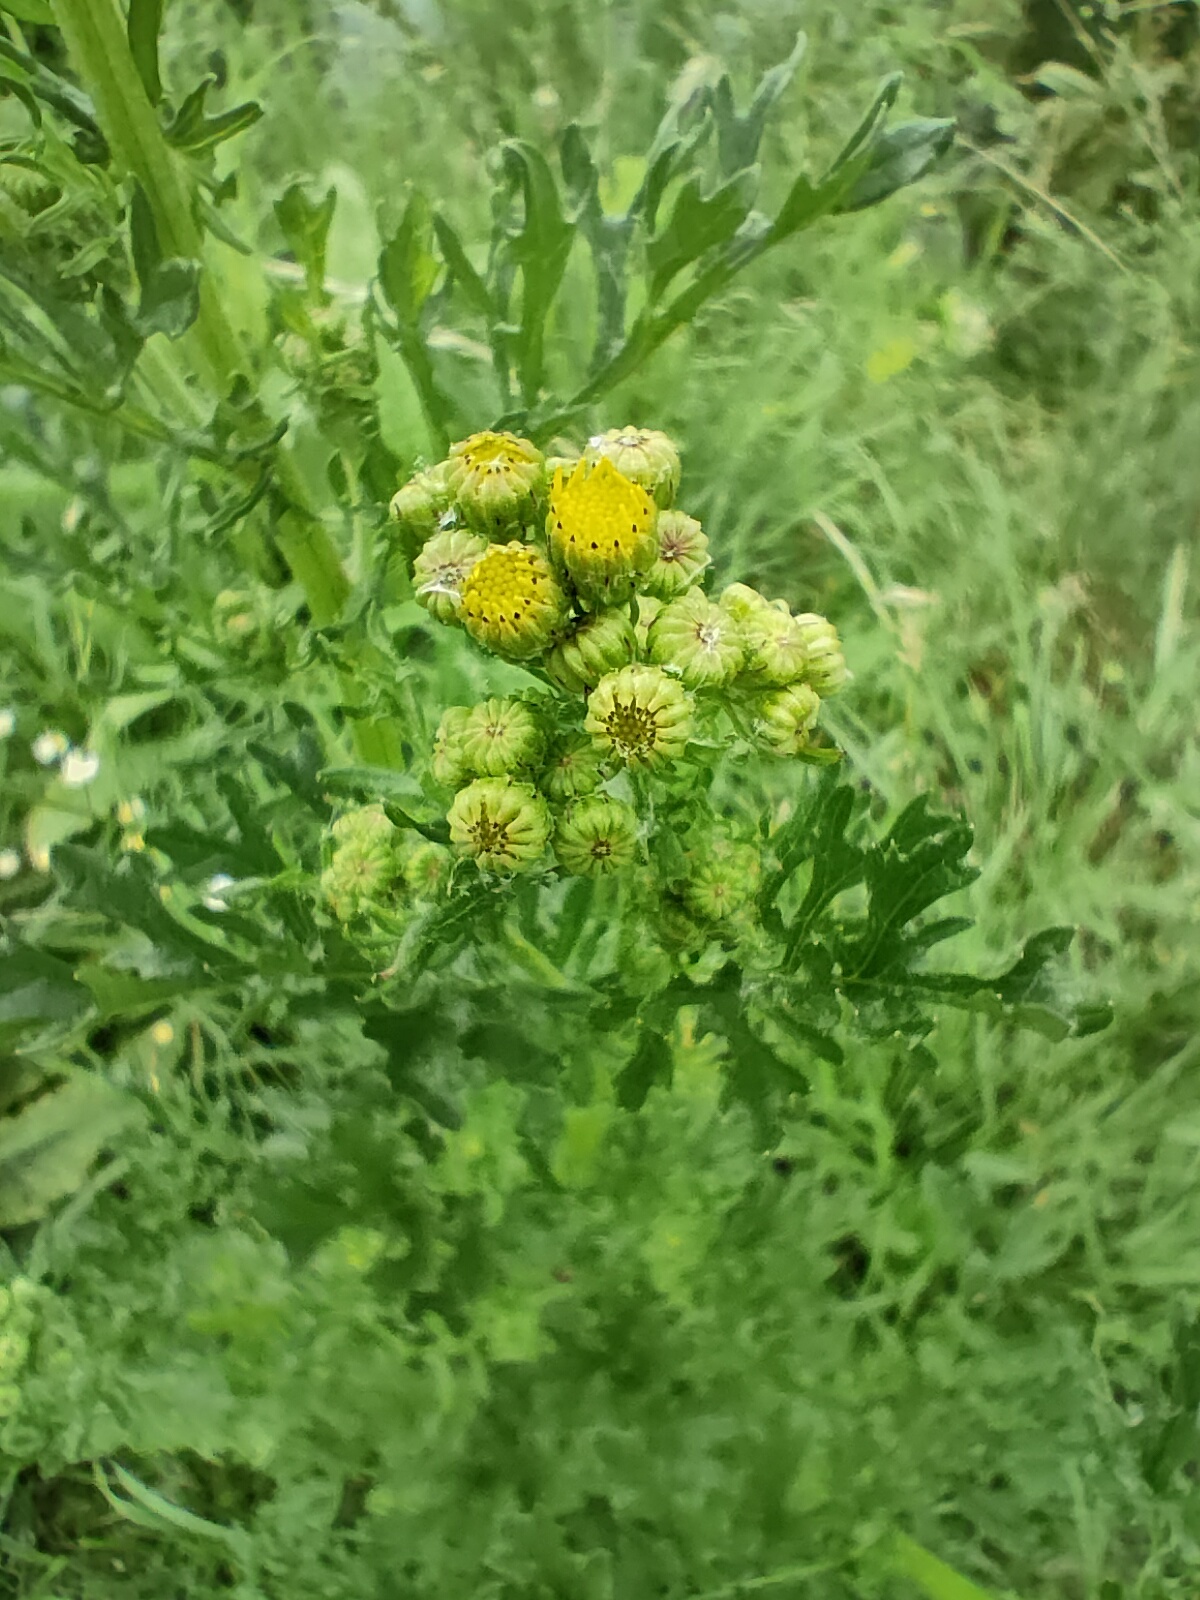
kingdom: Plantae
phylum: Tracheophyta
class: Magnoliopsida
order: Asterales
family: Asteraceae
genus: Jacobaea
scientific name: Jacobaea vulgaris
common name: Stinking willie
